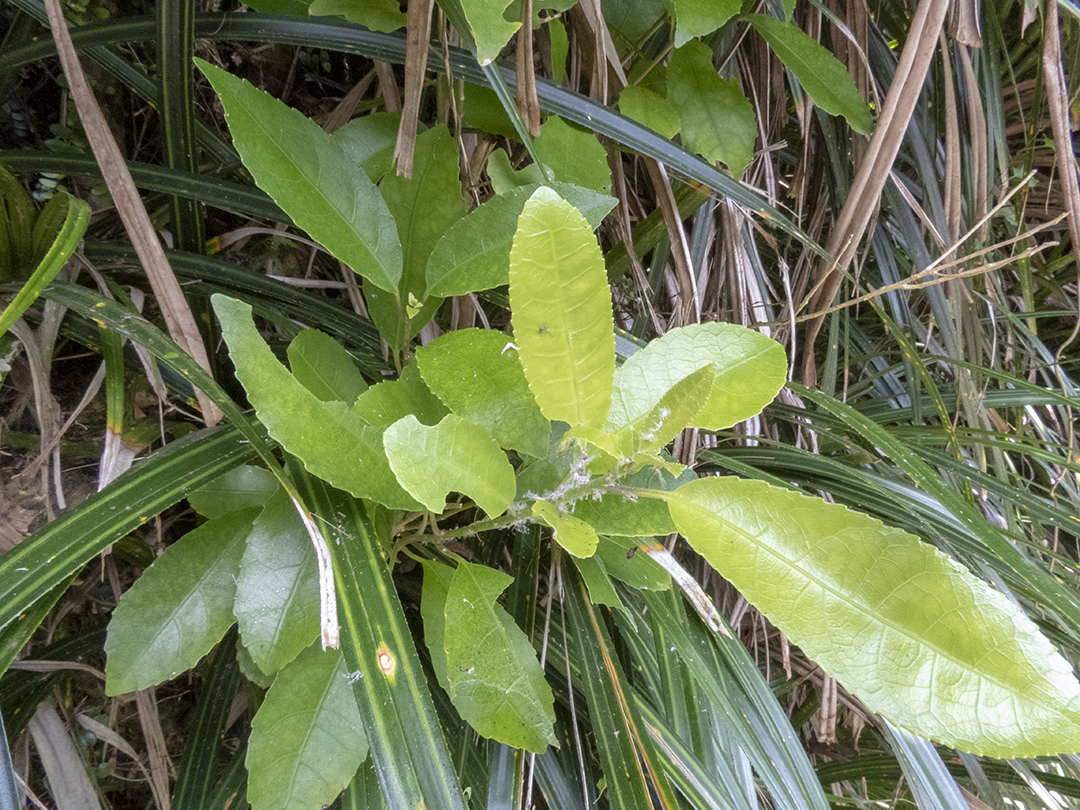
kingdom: Plantae
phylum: Tracheophyta
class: Magnoliopsida
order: Malpighiales
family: Violaceae
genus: Melicytus
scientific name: Melicytus ramiflorus
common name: Mahoe
